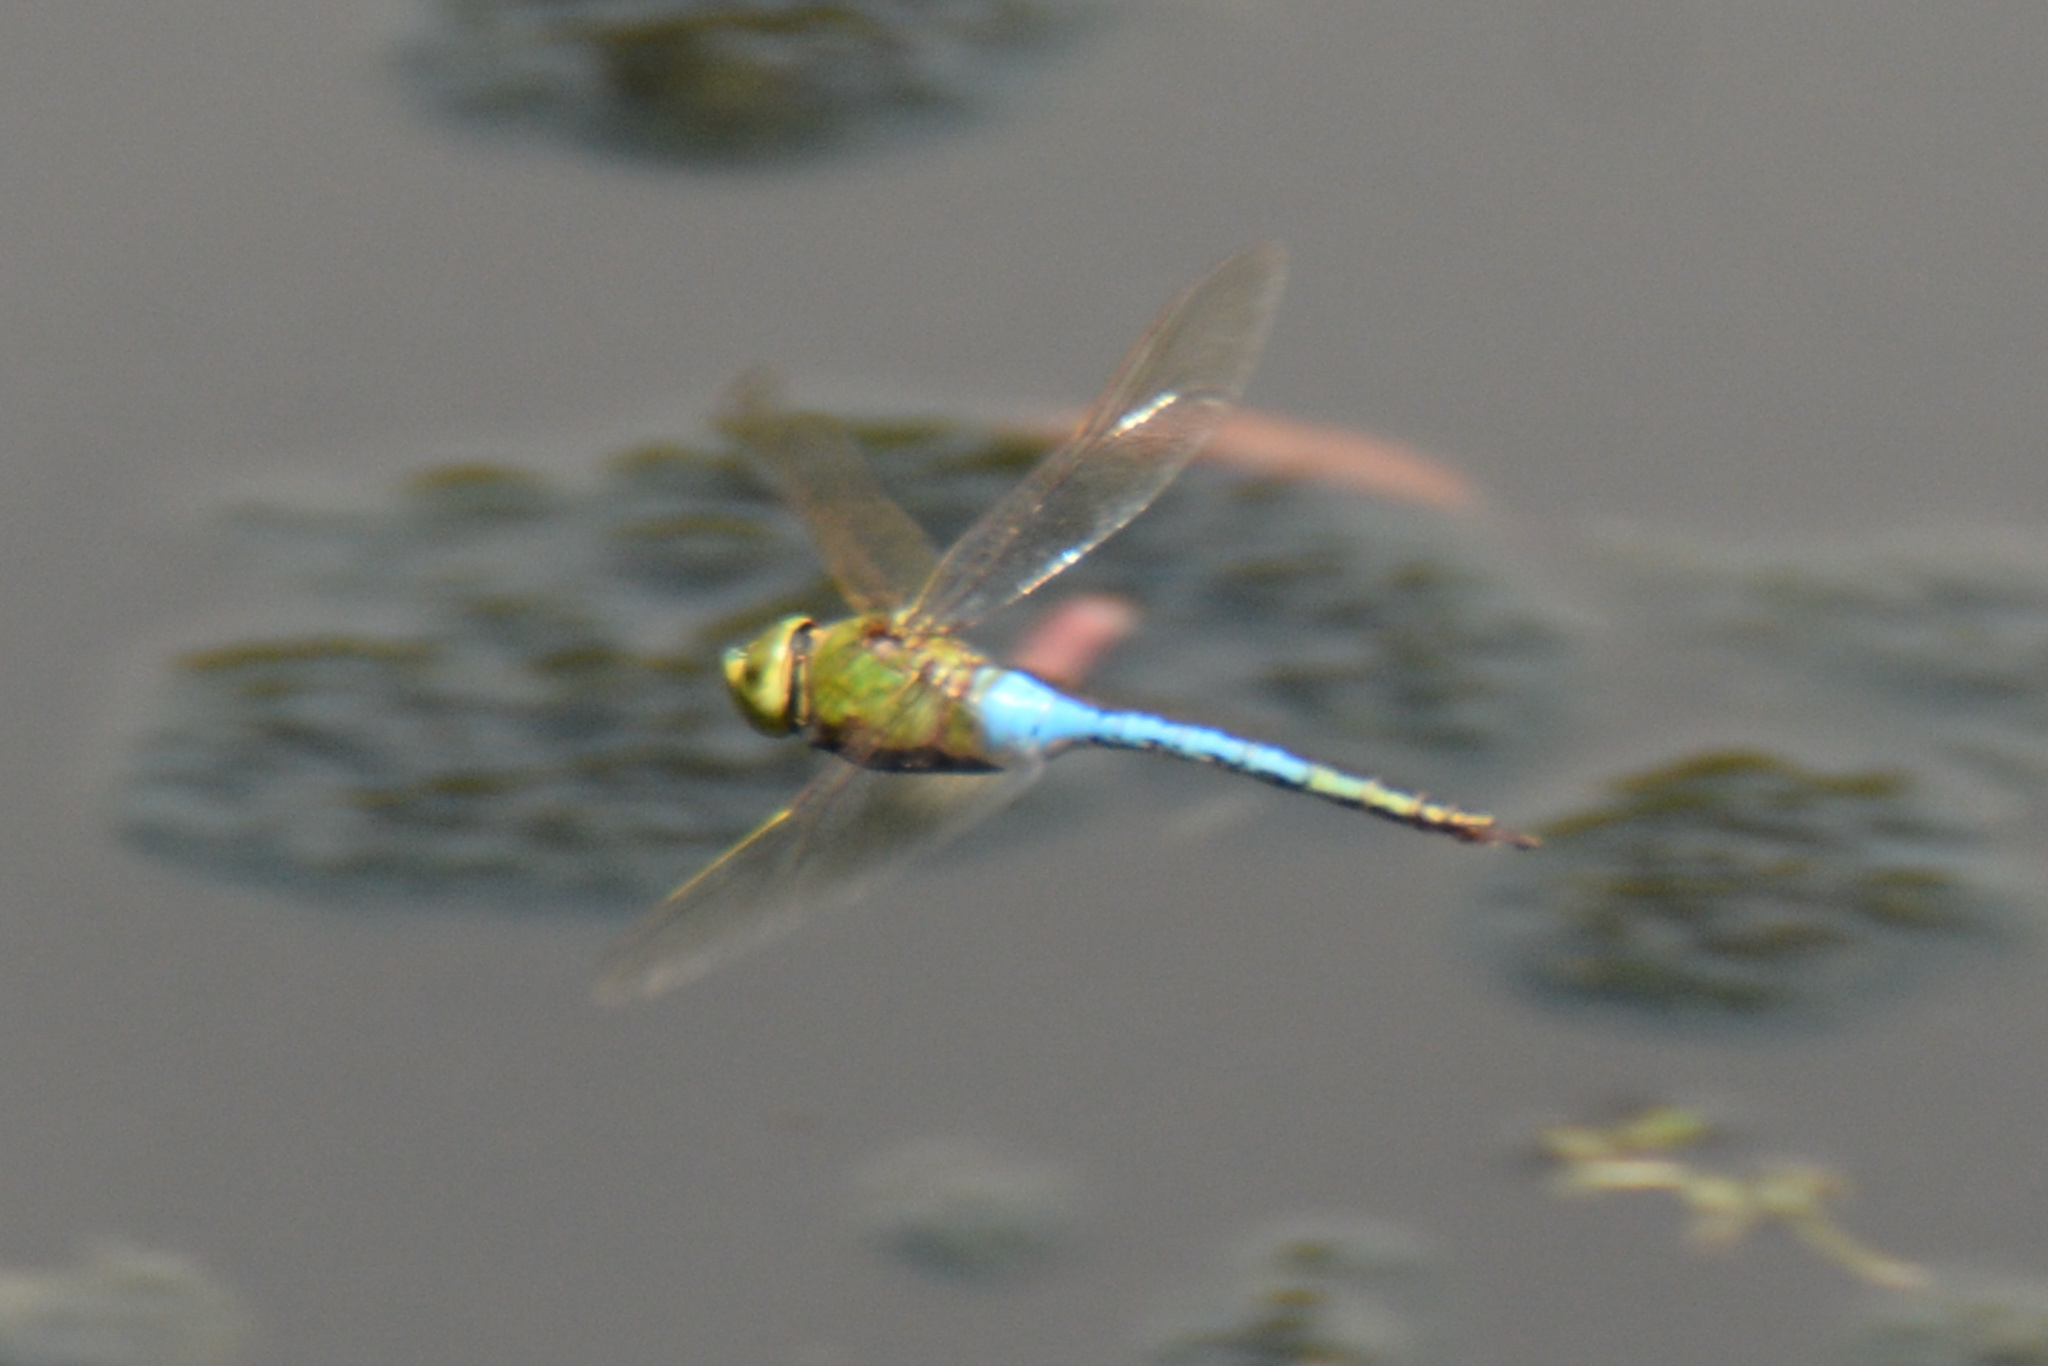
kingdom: Animalia
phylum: Arthropoda
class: Insecta
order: Odonata
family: Aeshnidae
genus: Anax
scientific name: Anax junius
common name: Common green darner
